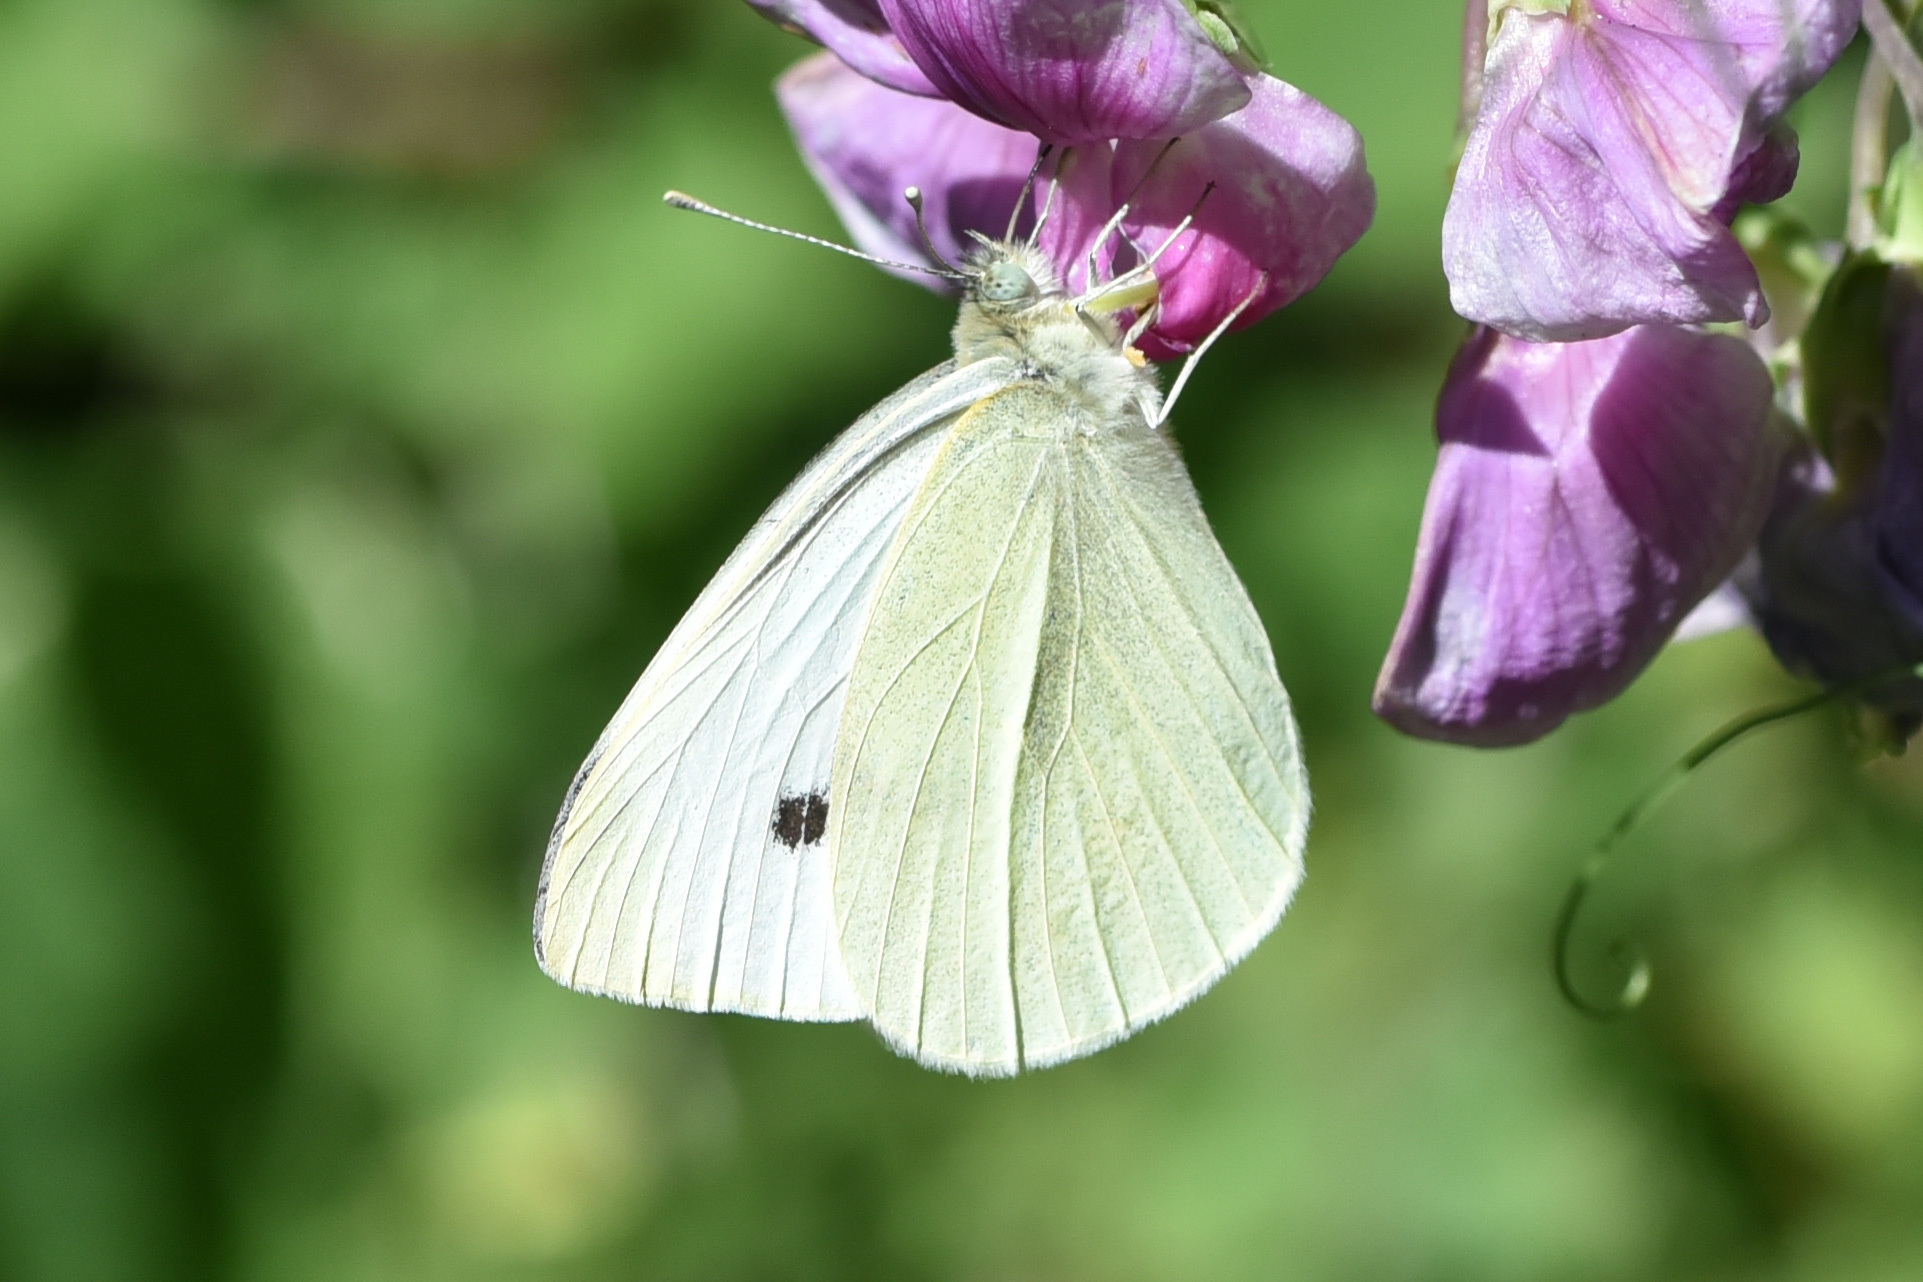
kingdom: Animalia
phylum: Arthropoda
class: Insecta
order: Lepidoptera
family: Pieridae
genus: Pieris
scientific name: Pieris rapae
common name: Small white
